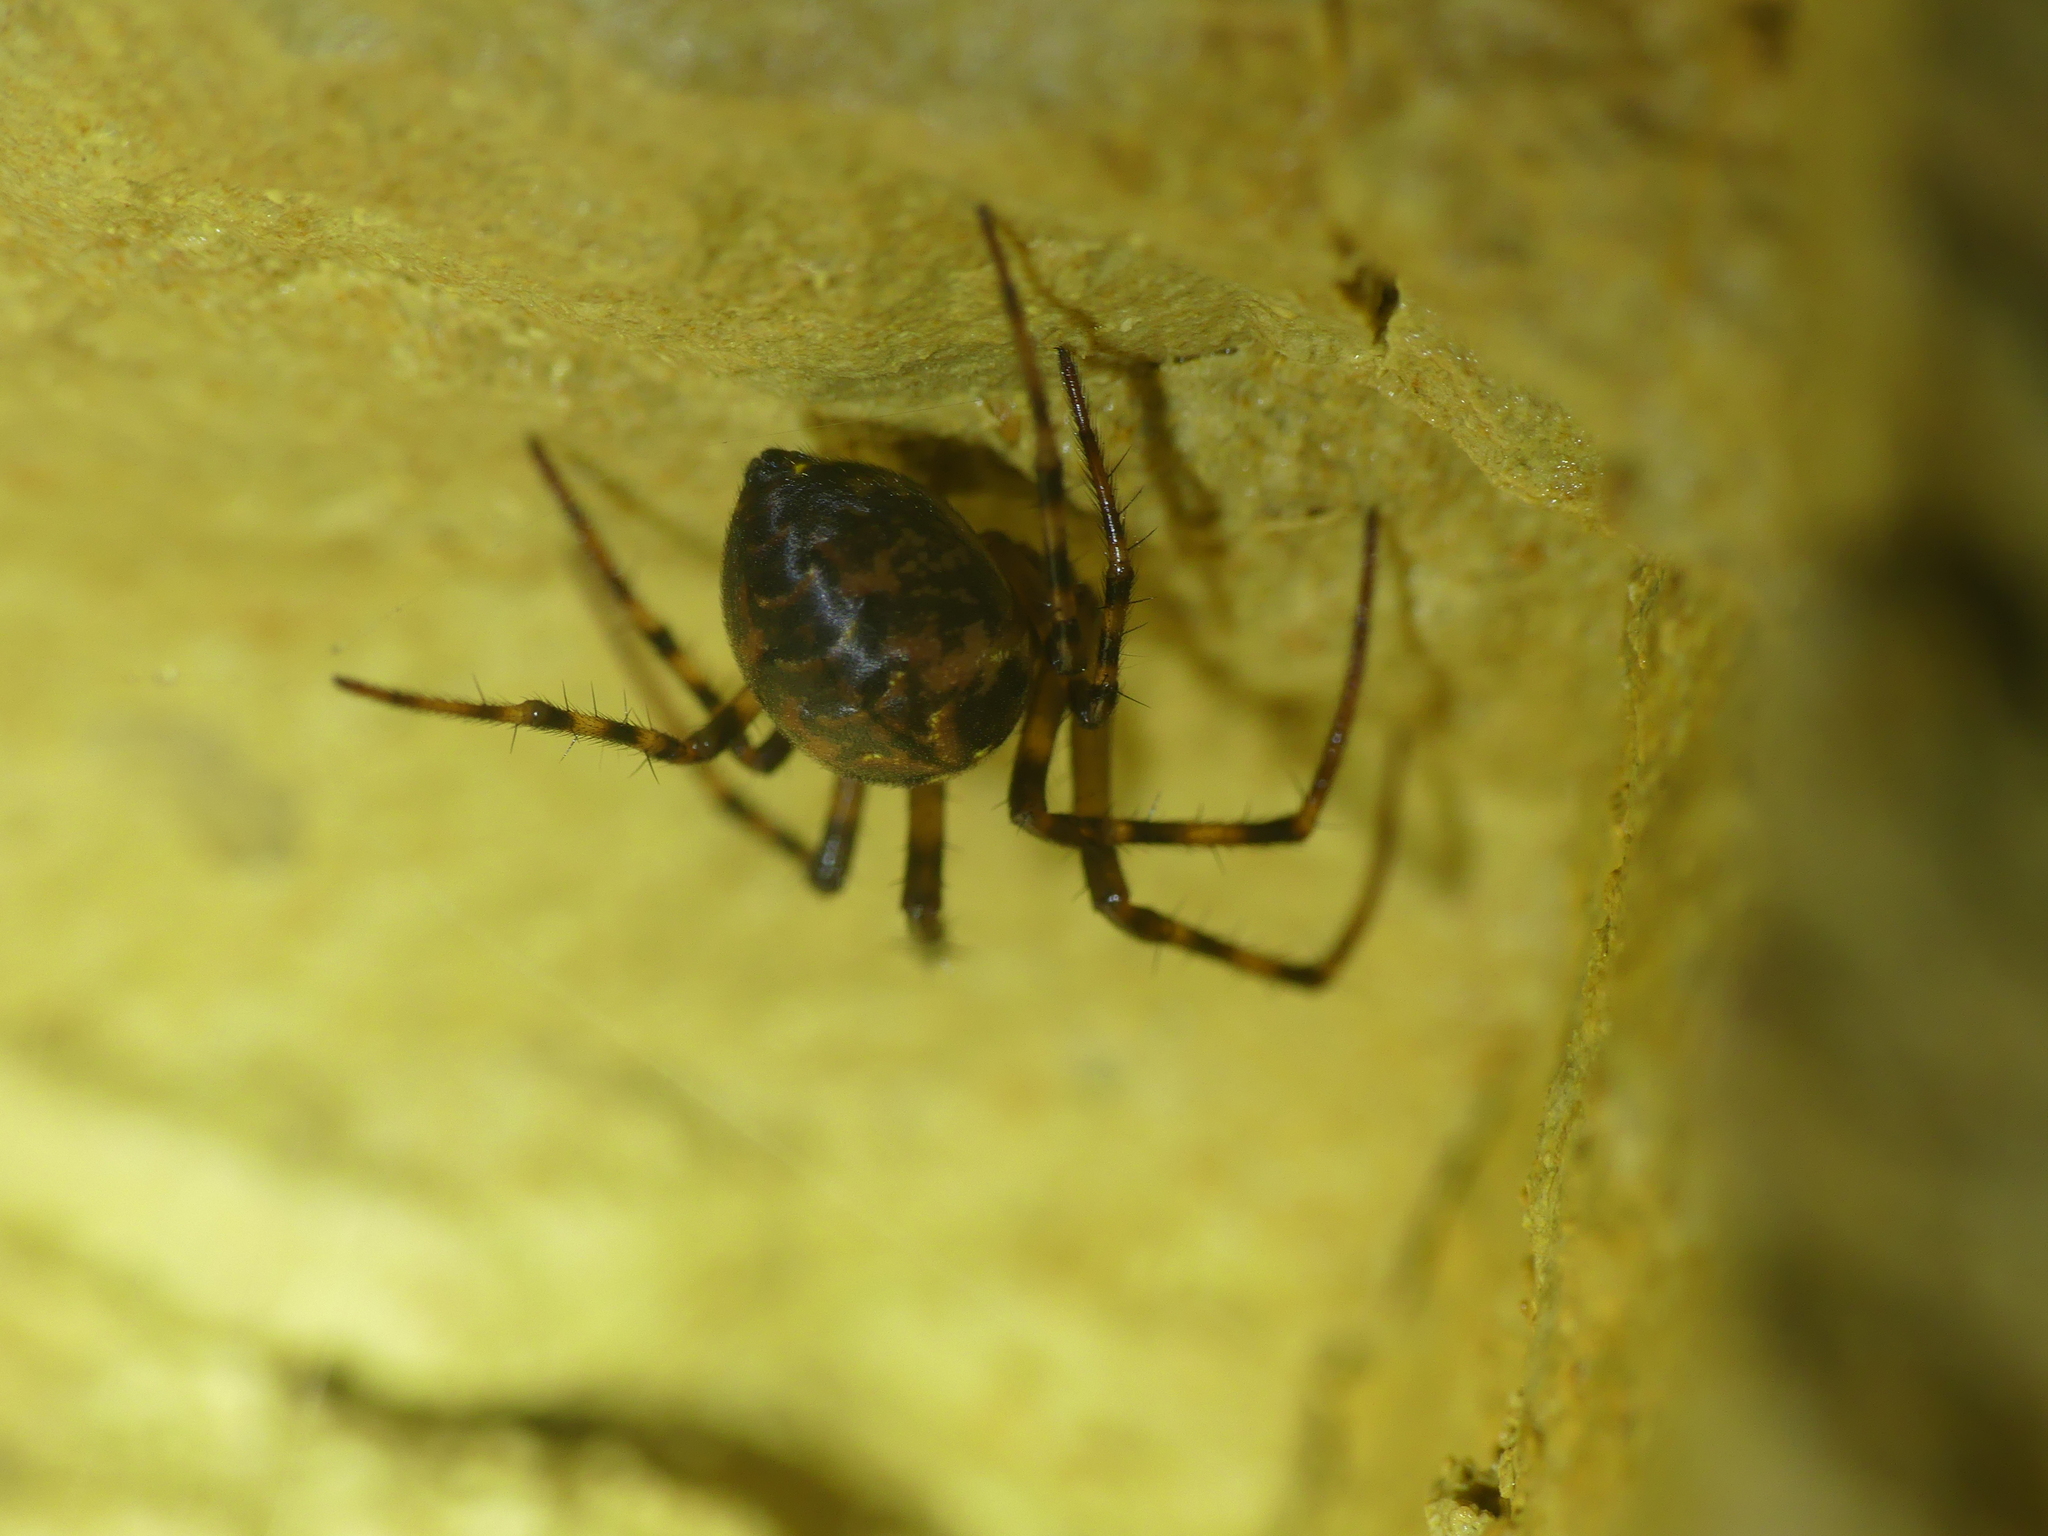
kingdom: Animalia
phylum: Arthropoda
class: Arachnida
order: Araneae
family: Tetragnathidae
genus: Meta
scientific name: Meta menardi
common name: Cave spider
